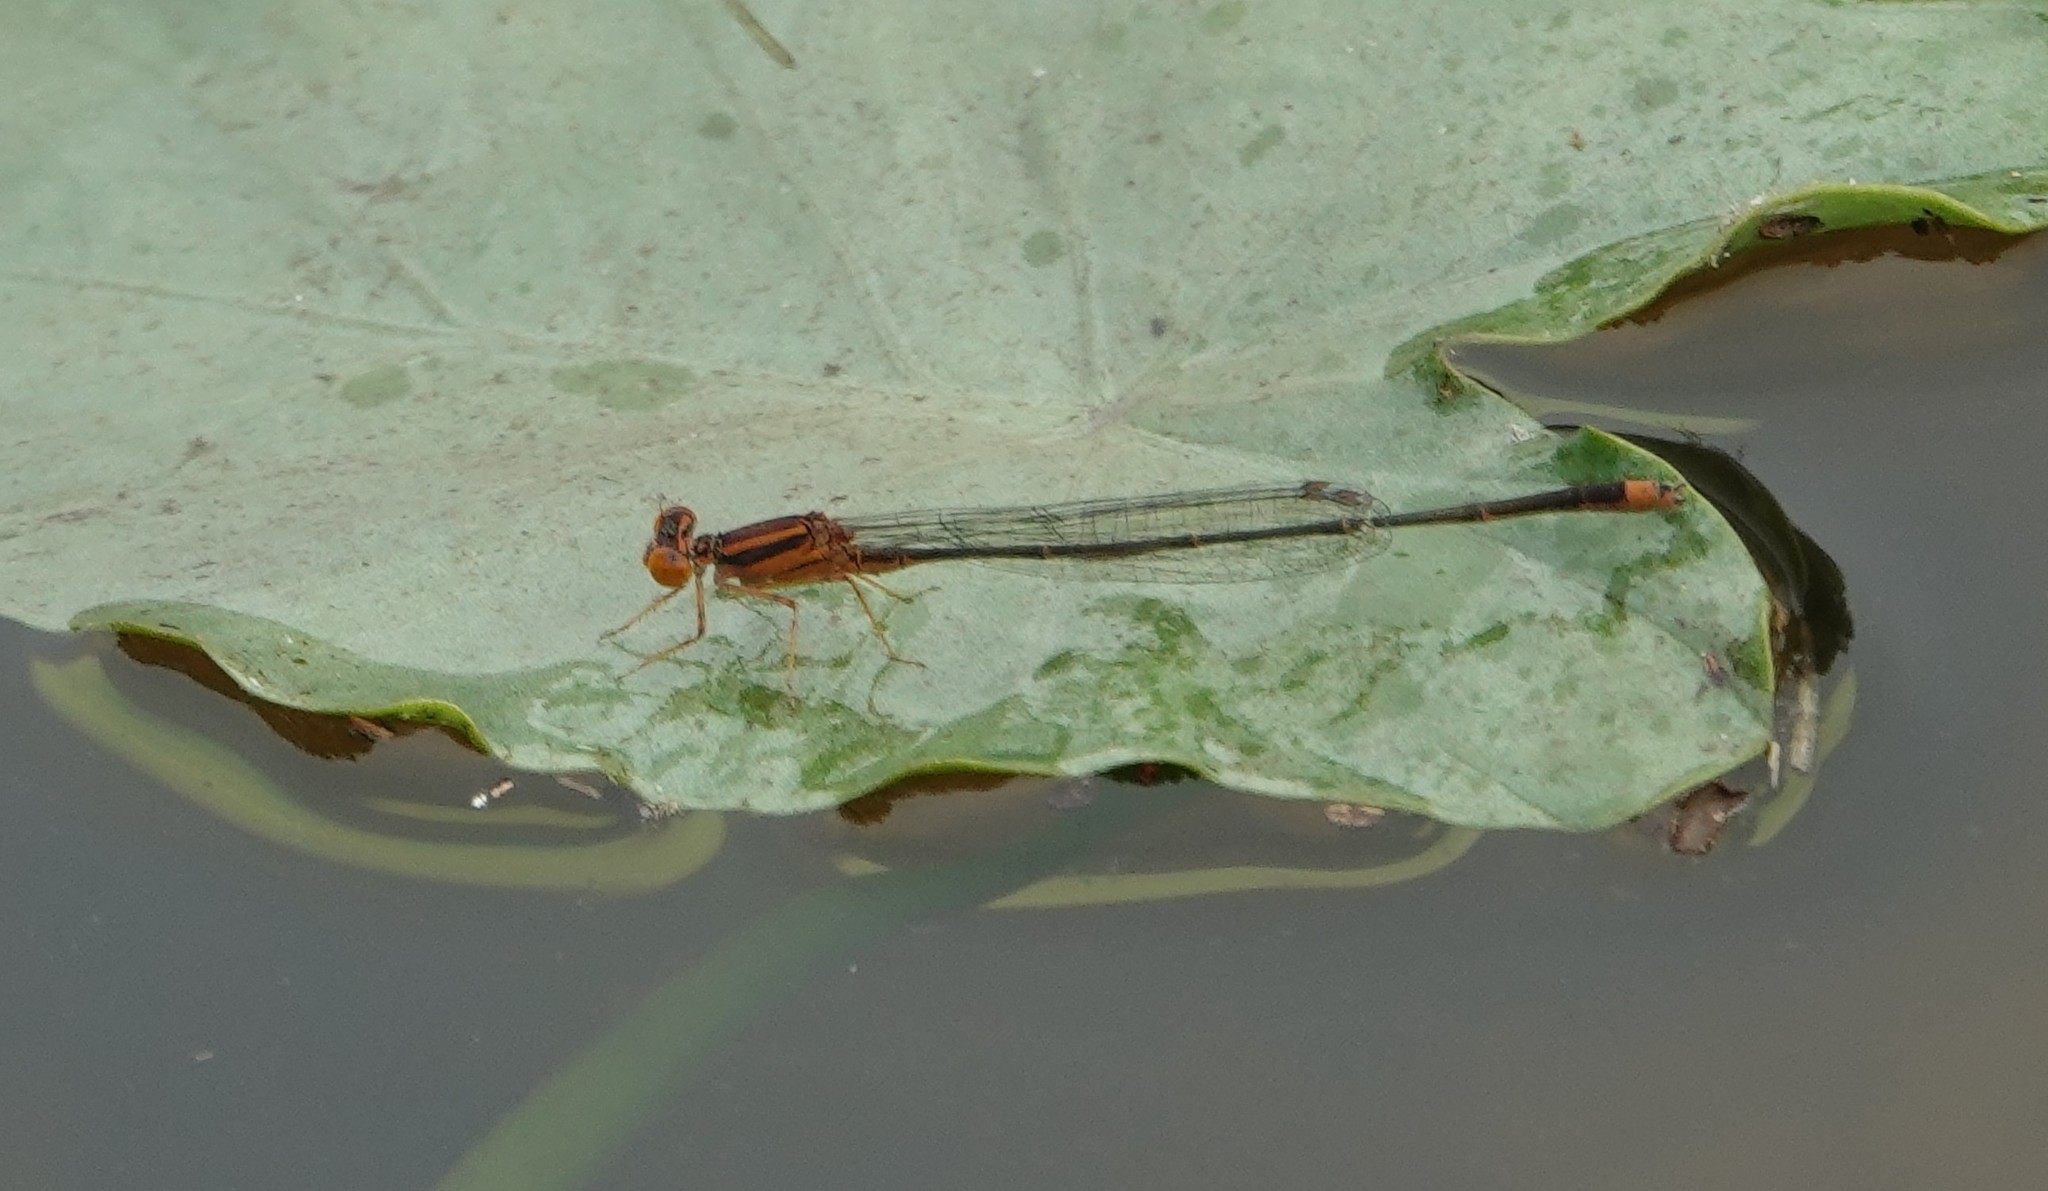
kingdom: Animalia
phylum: Arthropoda
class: Insecta
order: Odonata
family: Coenagrionidae
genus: Enallagma
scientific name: Enallagma pollutum
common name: Florida bluet
